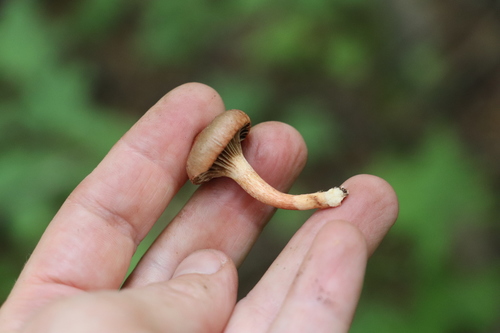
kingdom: Fungi
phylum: Basidiomycota
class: Agaricomycetes
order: Boletales
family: Gomphidiaceae
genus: Chroogomphus
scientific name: Chroogomphus rutilus
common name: Copper spike
